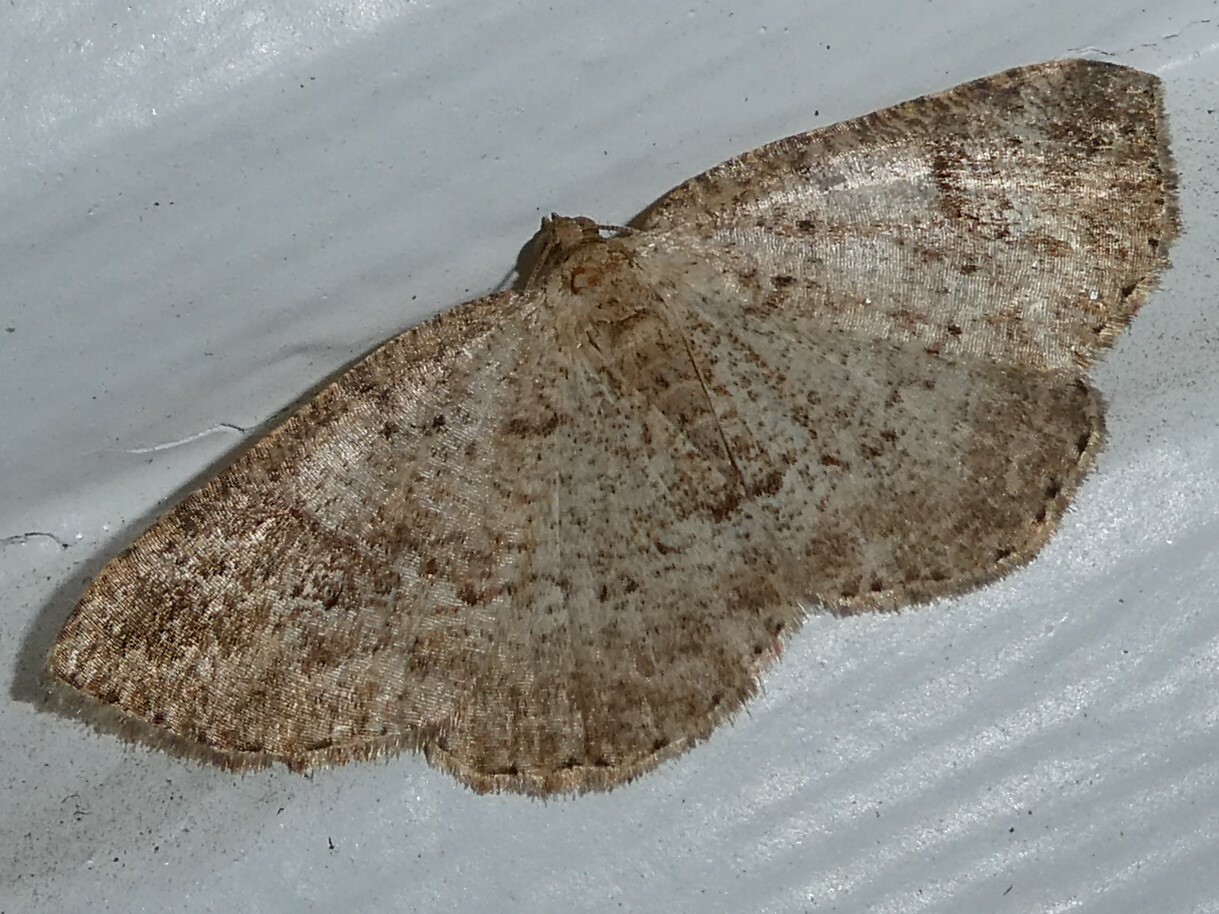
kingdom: Animalia
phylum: Arthropoda
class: Insecta
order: Lepidoptera
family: Geometridae
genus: Homochlodes
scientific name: Homochlodes fritillaria
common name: Pale homochlodes
